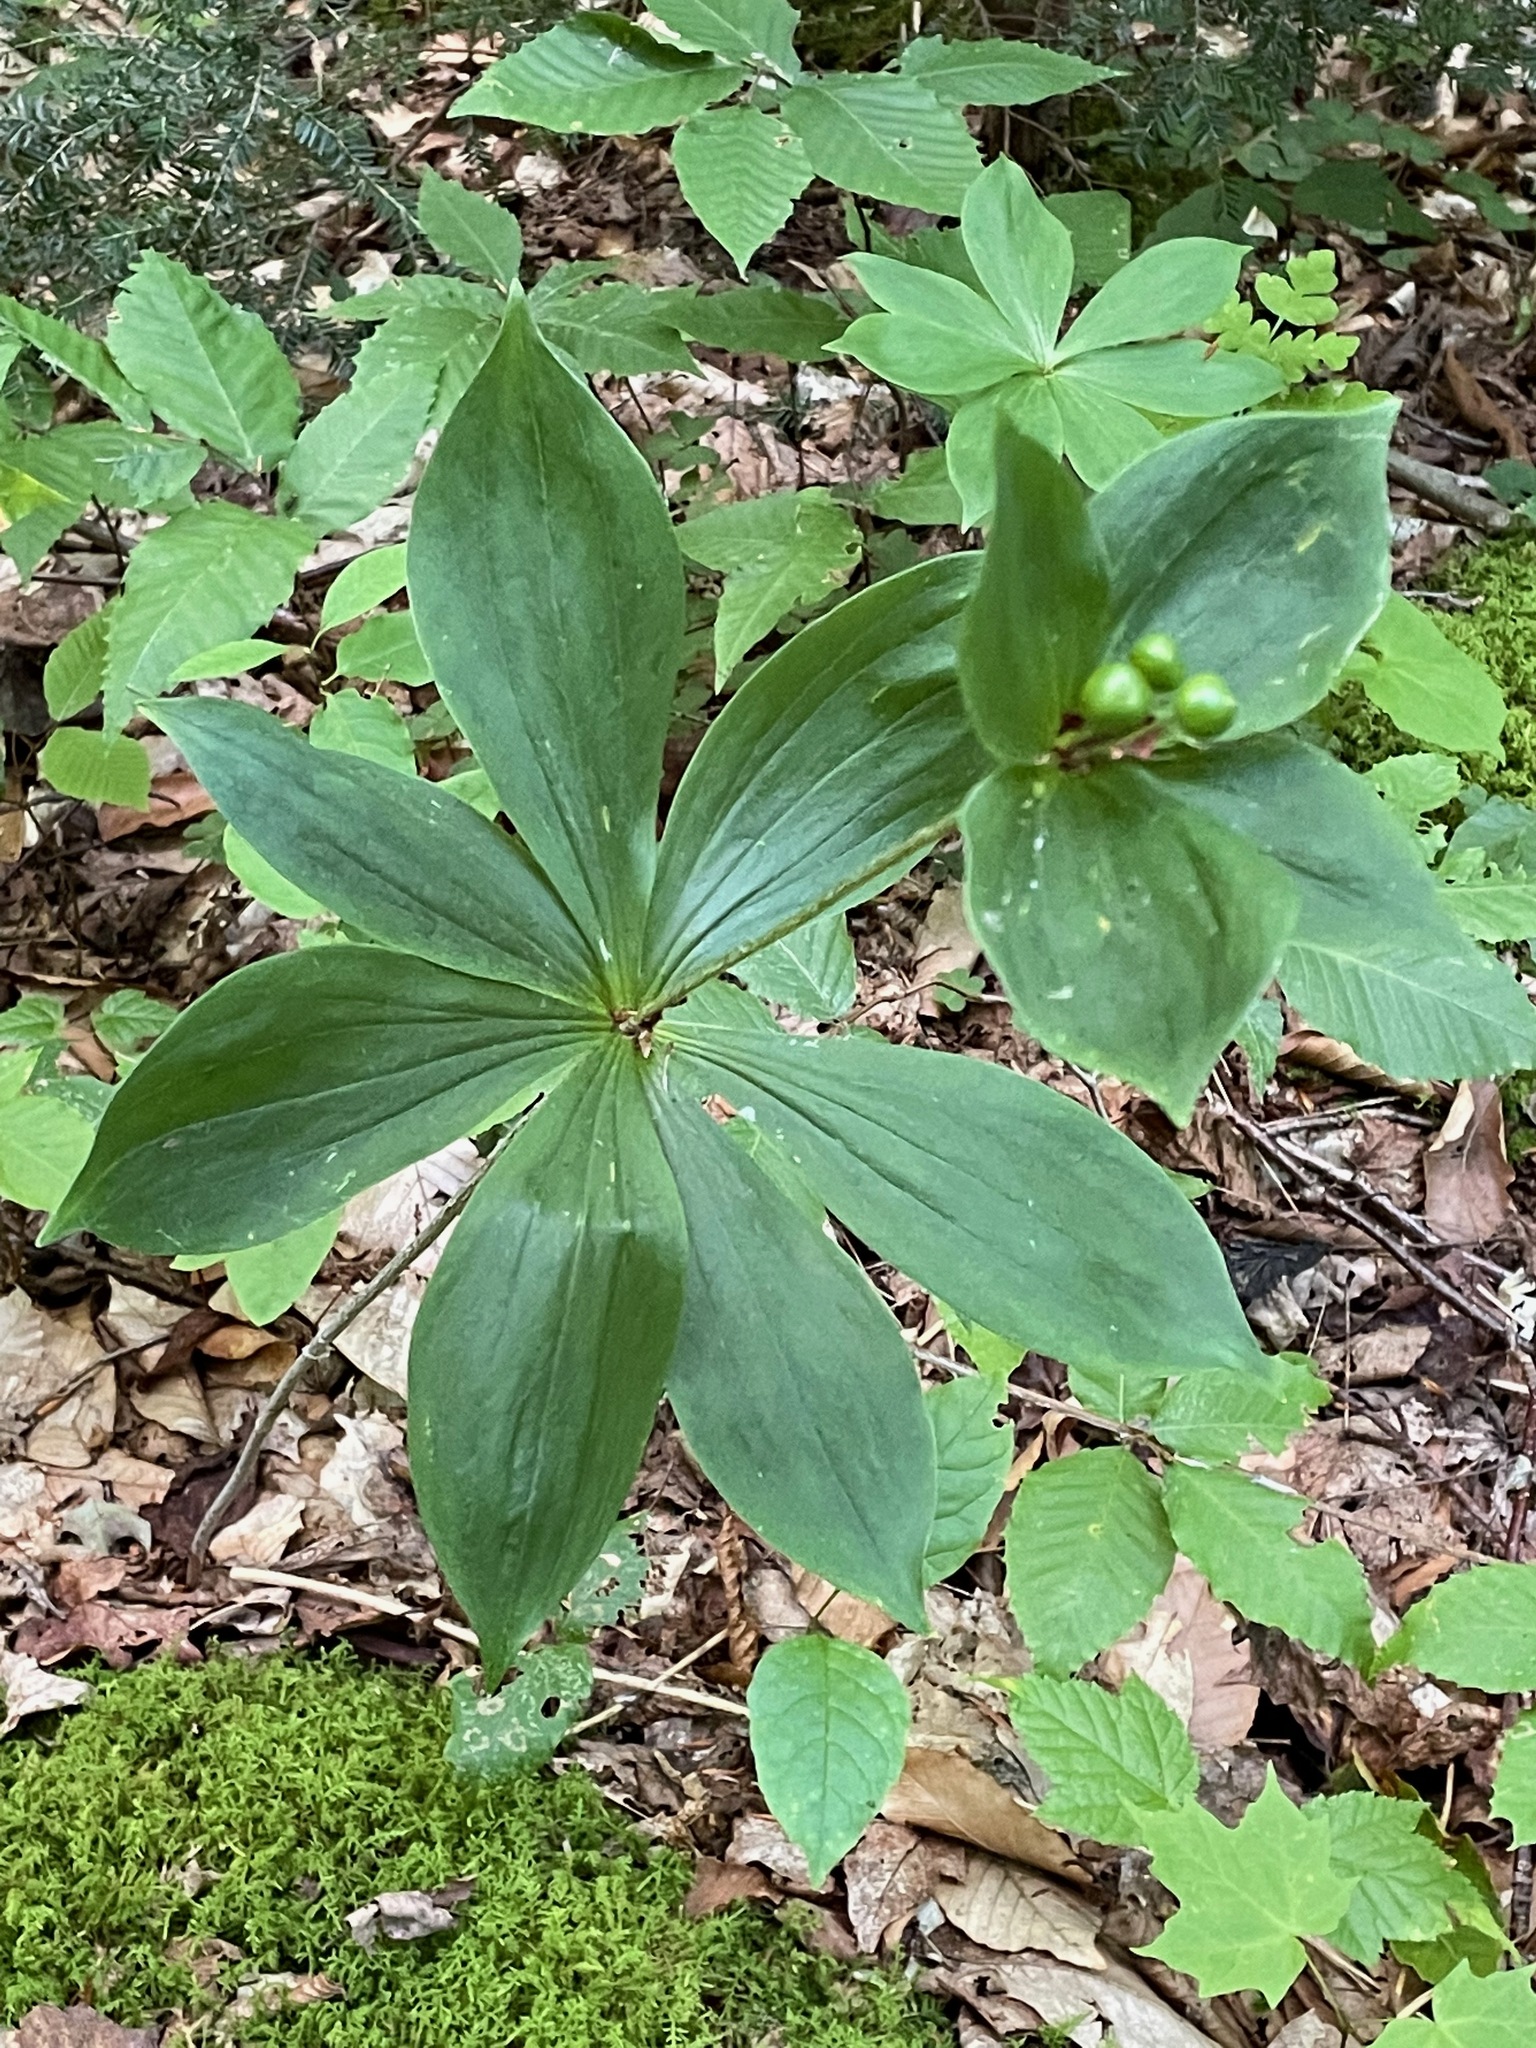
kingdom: Plantae
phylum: Tracheophyta
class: Liliopsida
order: Liliales
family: Liliaceae
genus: Medeola
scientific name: Medeola virginiana
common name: Indian cucumber-root
